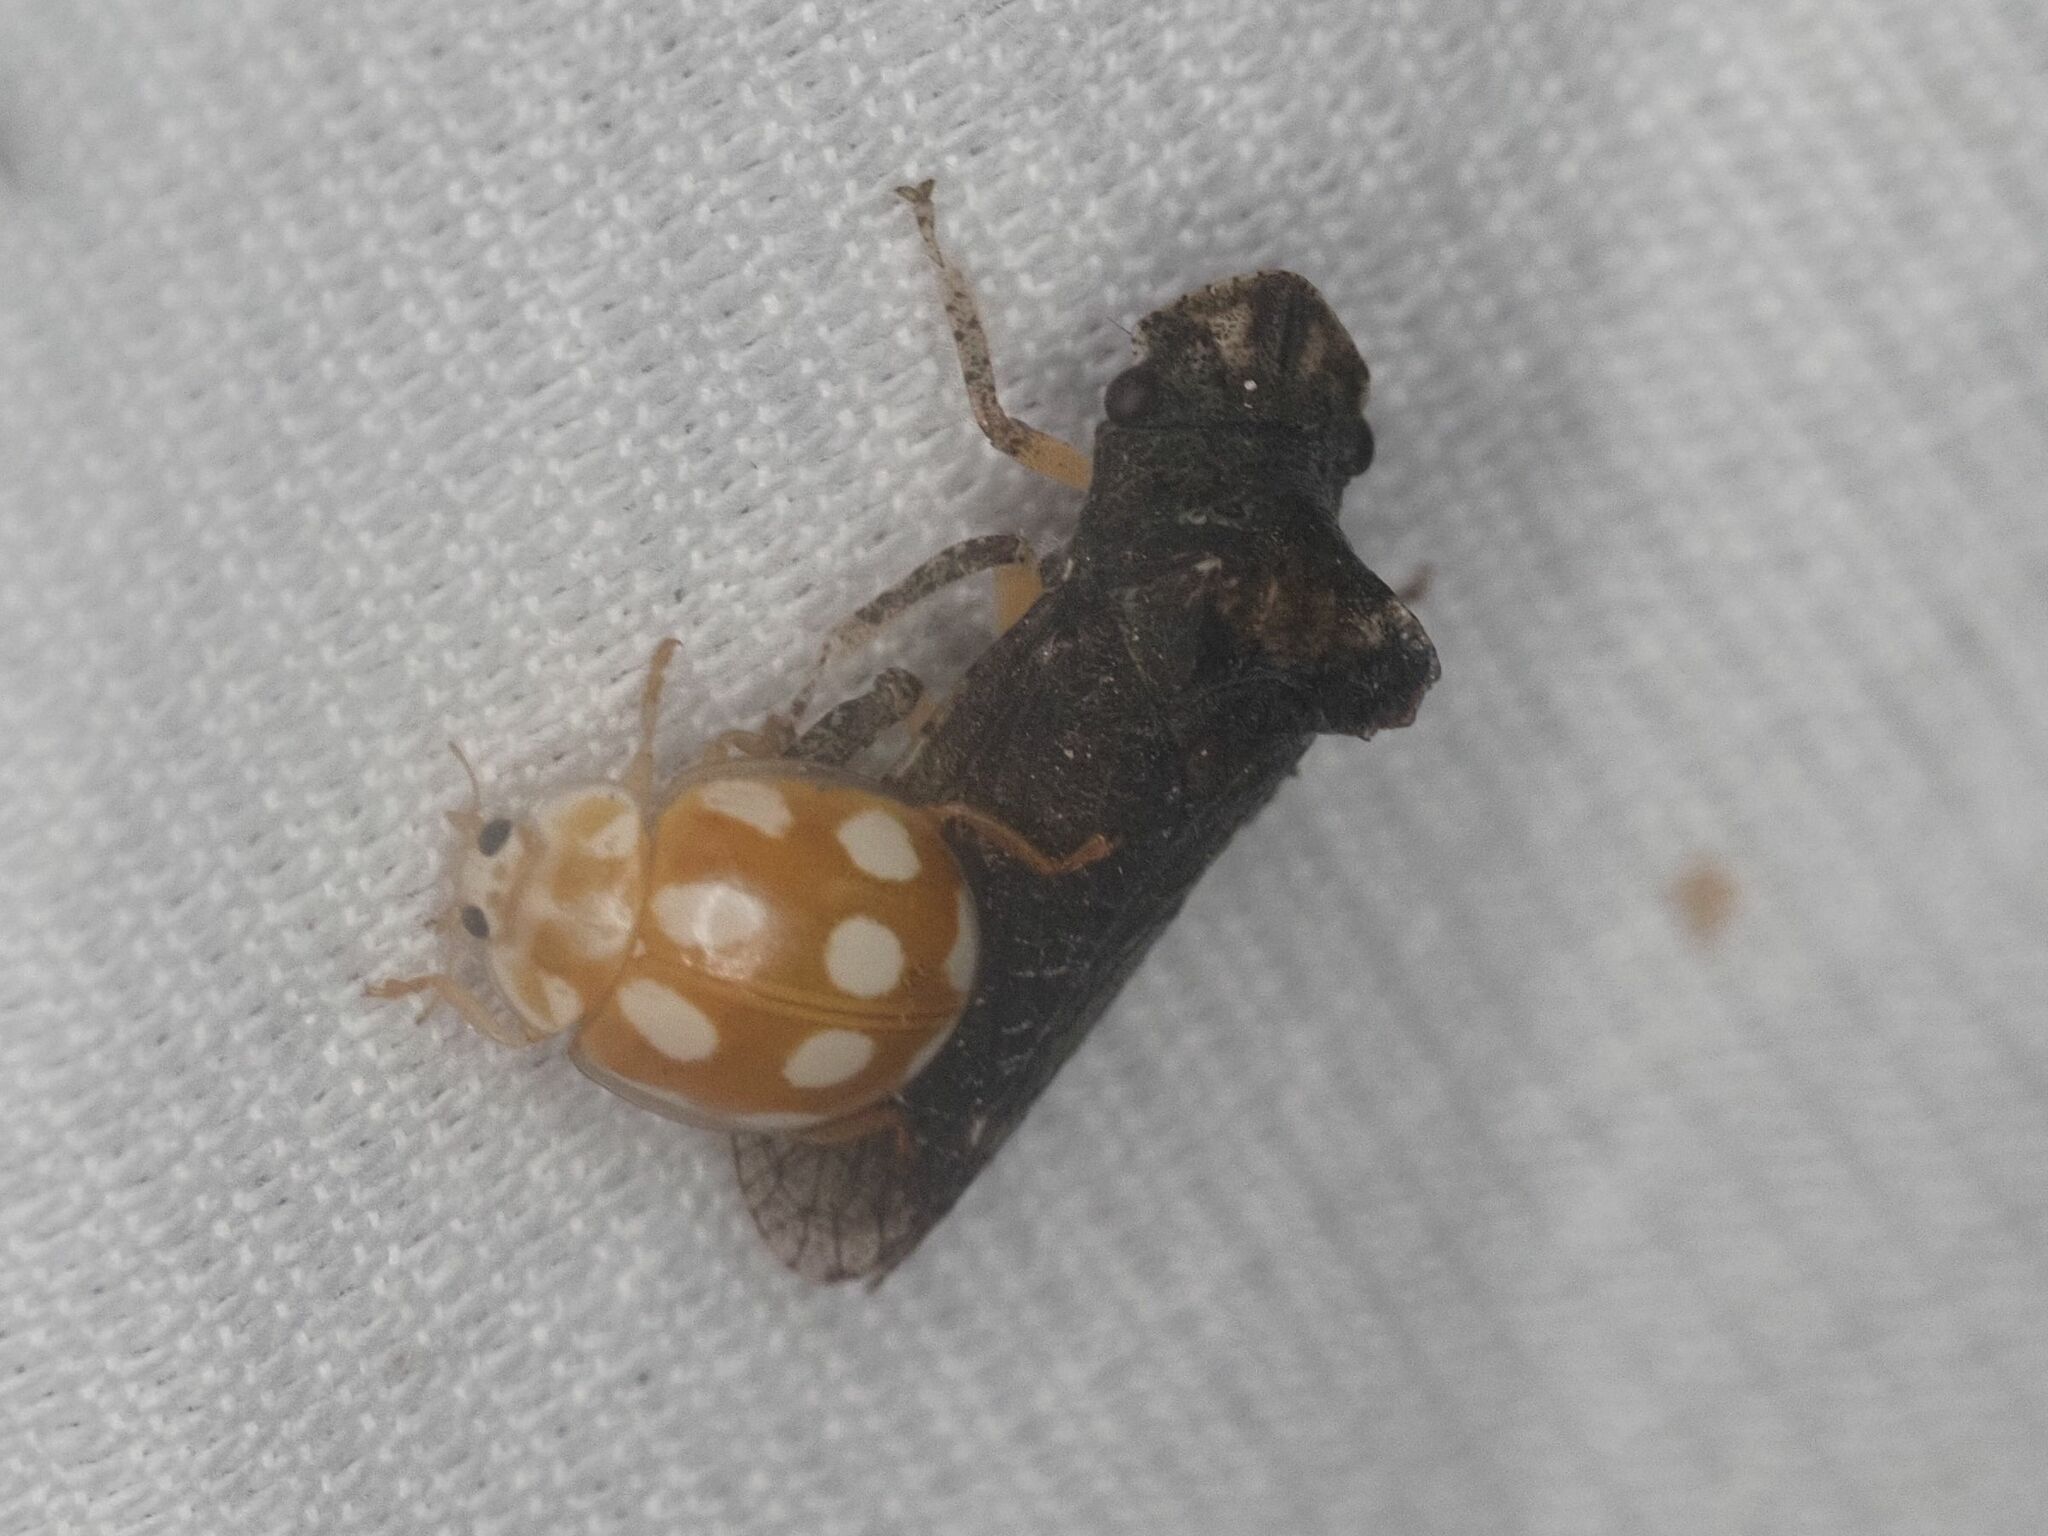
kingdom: Animalia
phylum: Arthropoda
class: Insecta
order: Hemiptera
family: Cicadellidae
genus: Ledra
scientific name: Ledra aurita
